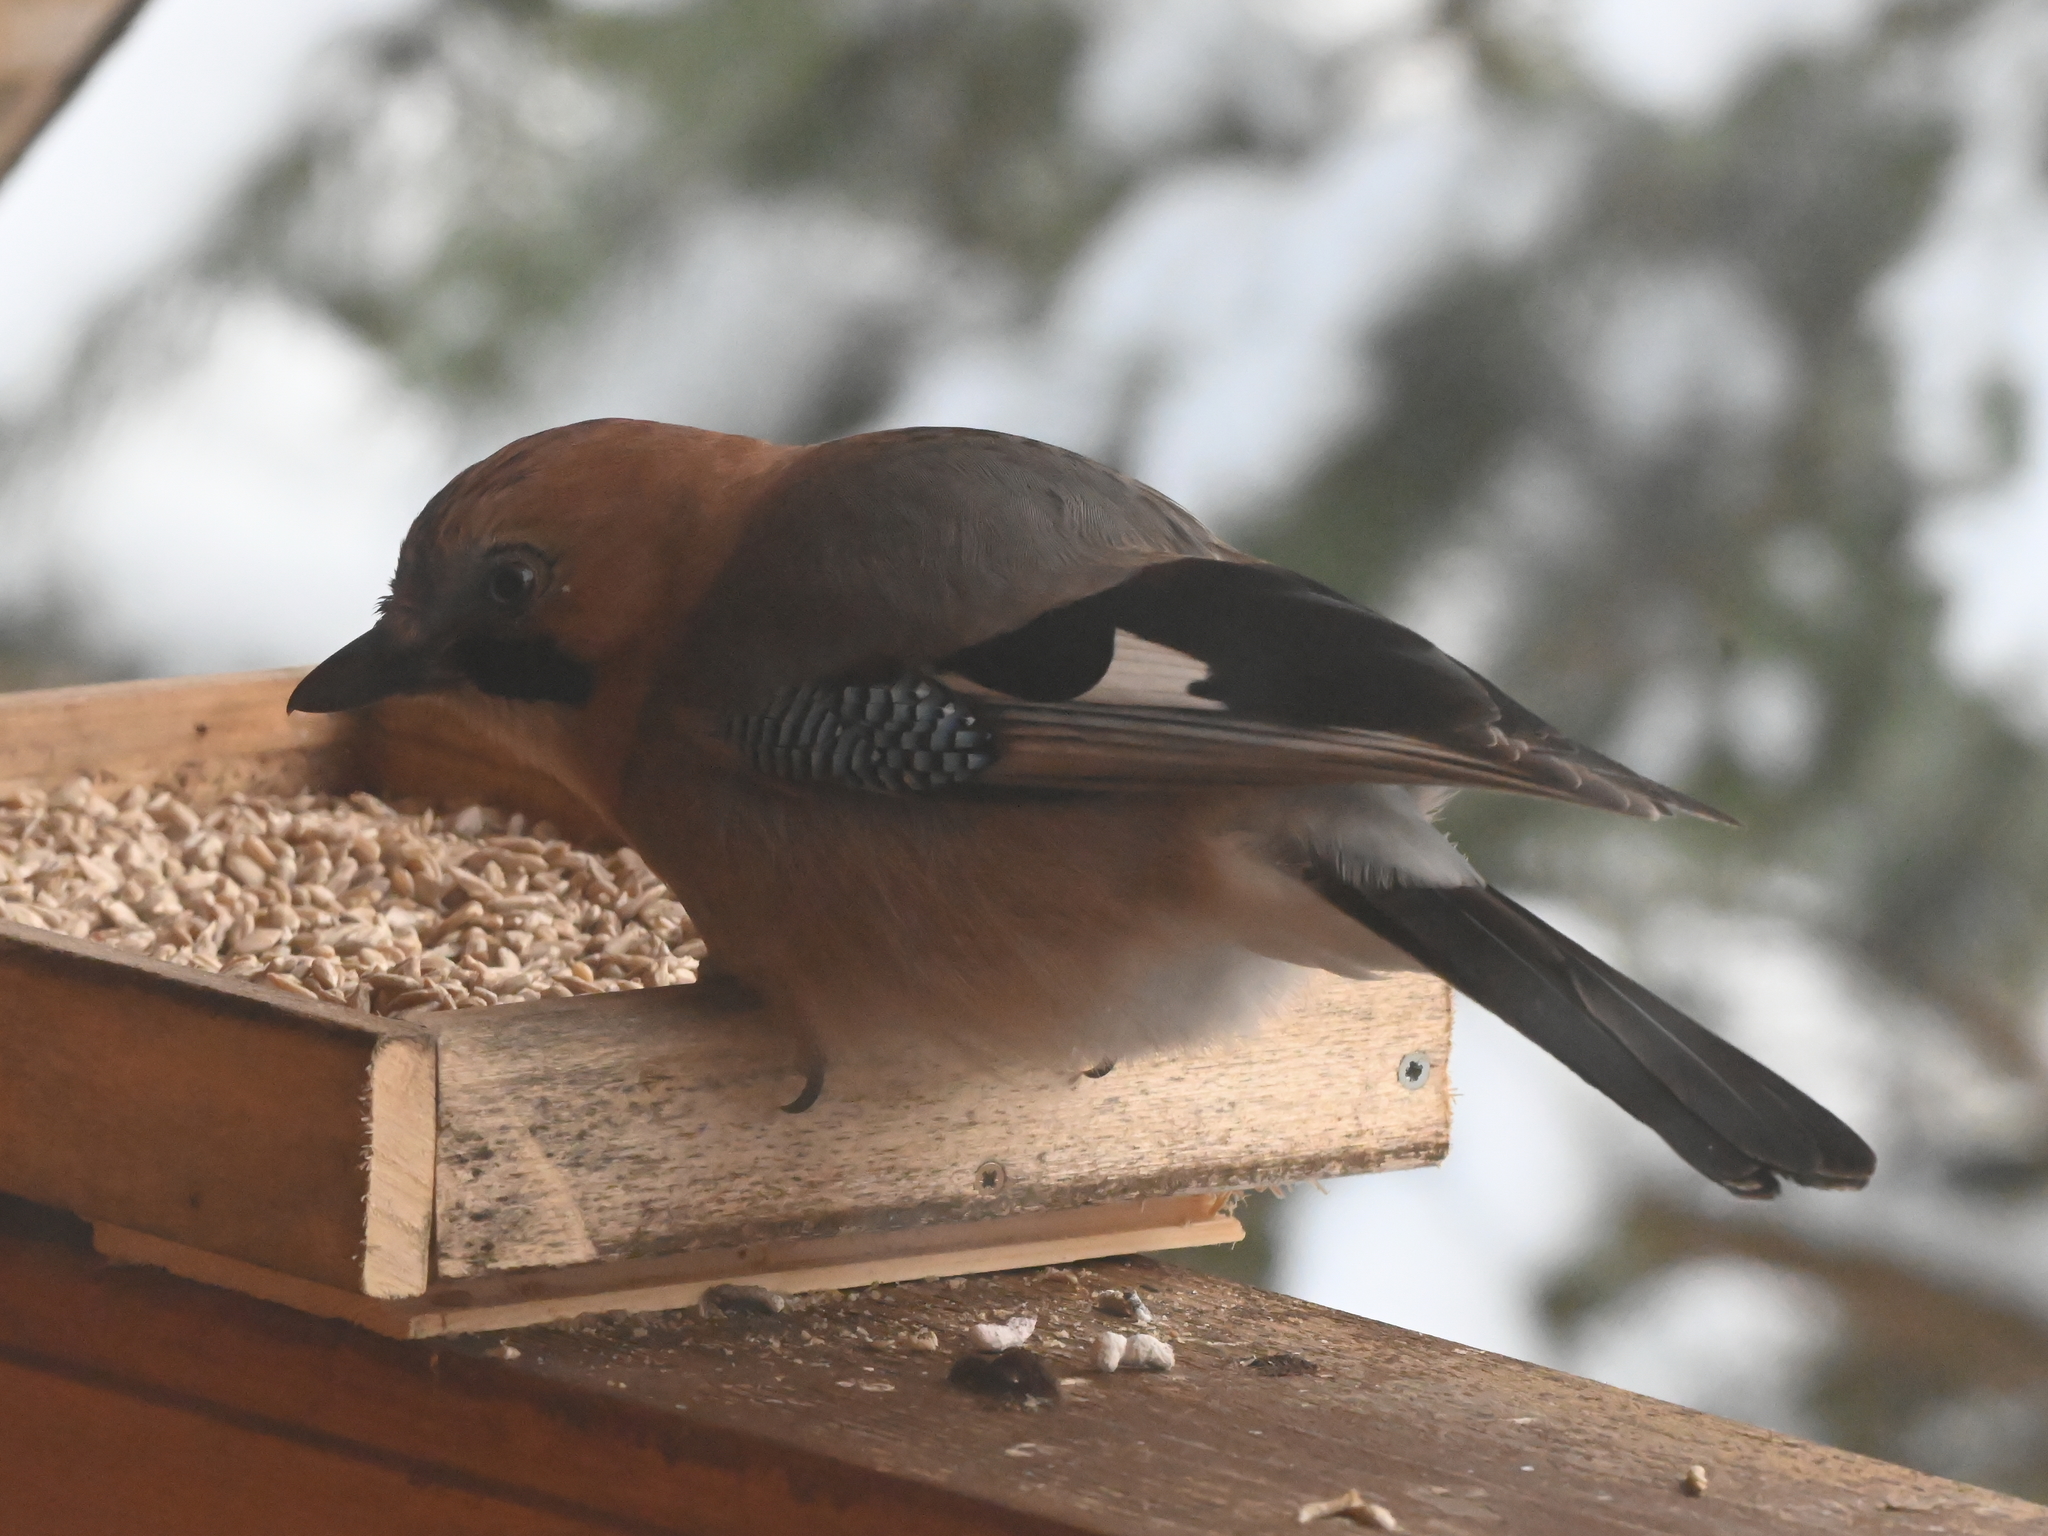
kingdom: Animalia
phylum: Chordata
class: Aves
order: Passeriformes
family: Corvidae
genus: Garrulus
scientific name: Garrulus glandarius
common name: Eurasian jay
